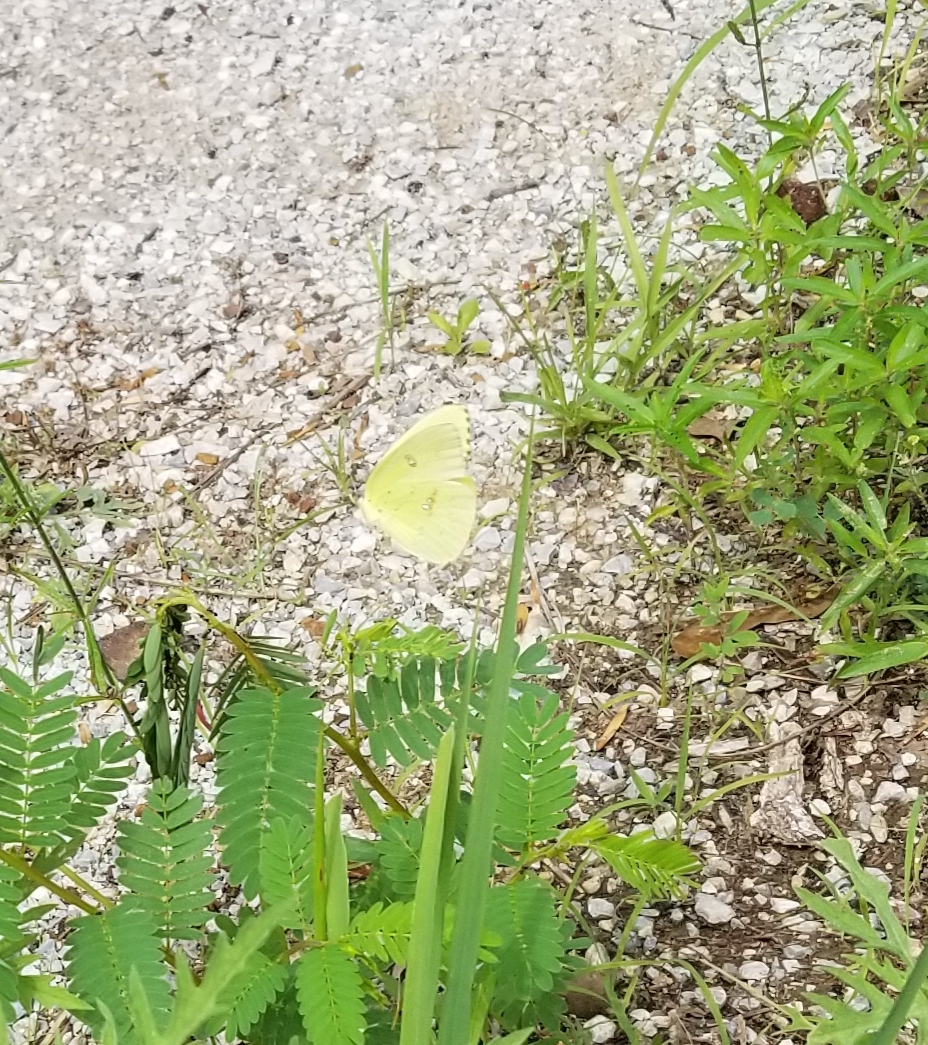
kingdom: Animalia
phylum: Arthropoda
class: Insecta
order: Lepidoptera
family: Pieridae
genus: Phoebis
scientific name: Phoebis sennae
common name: Cloudless sulphur
